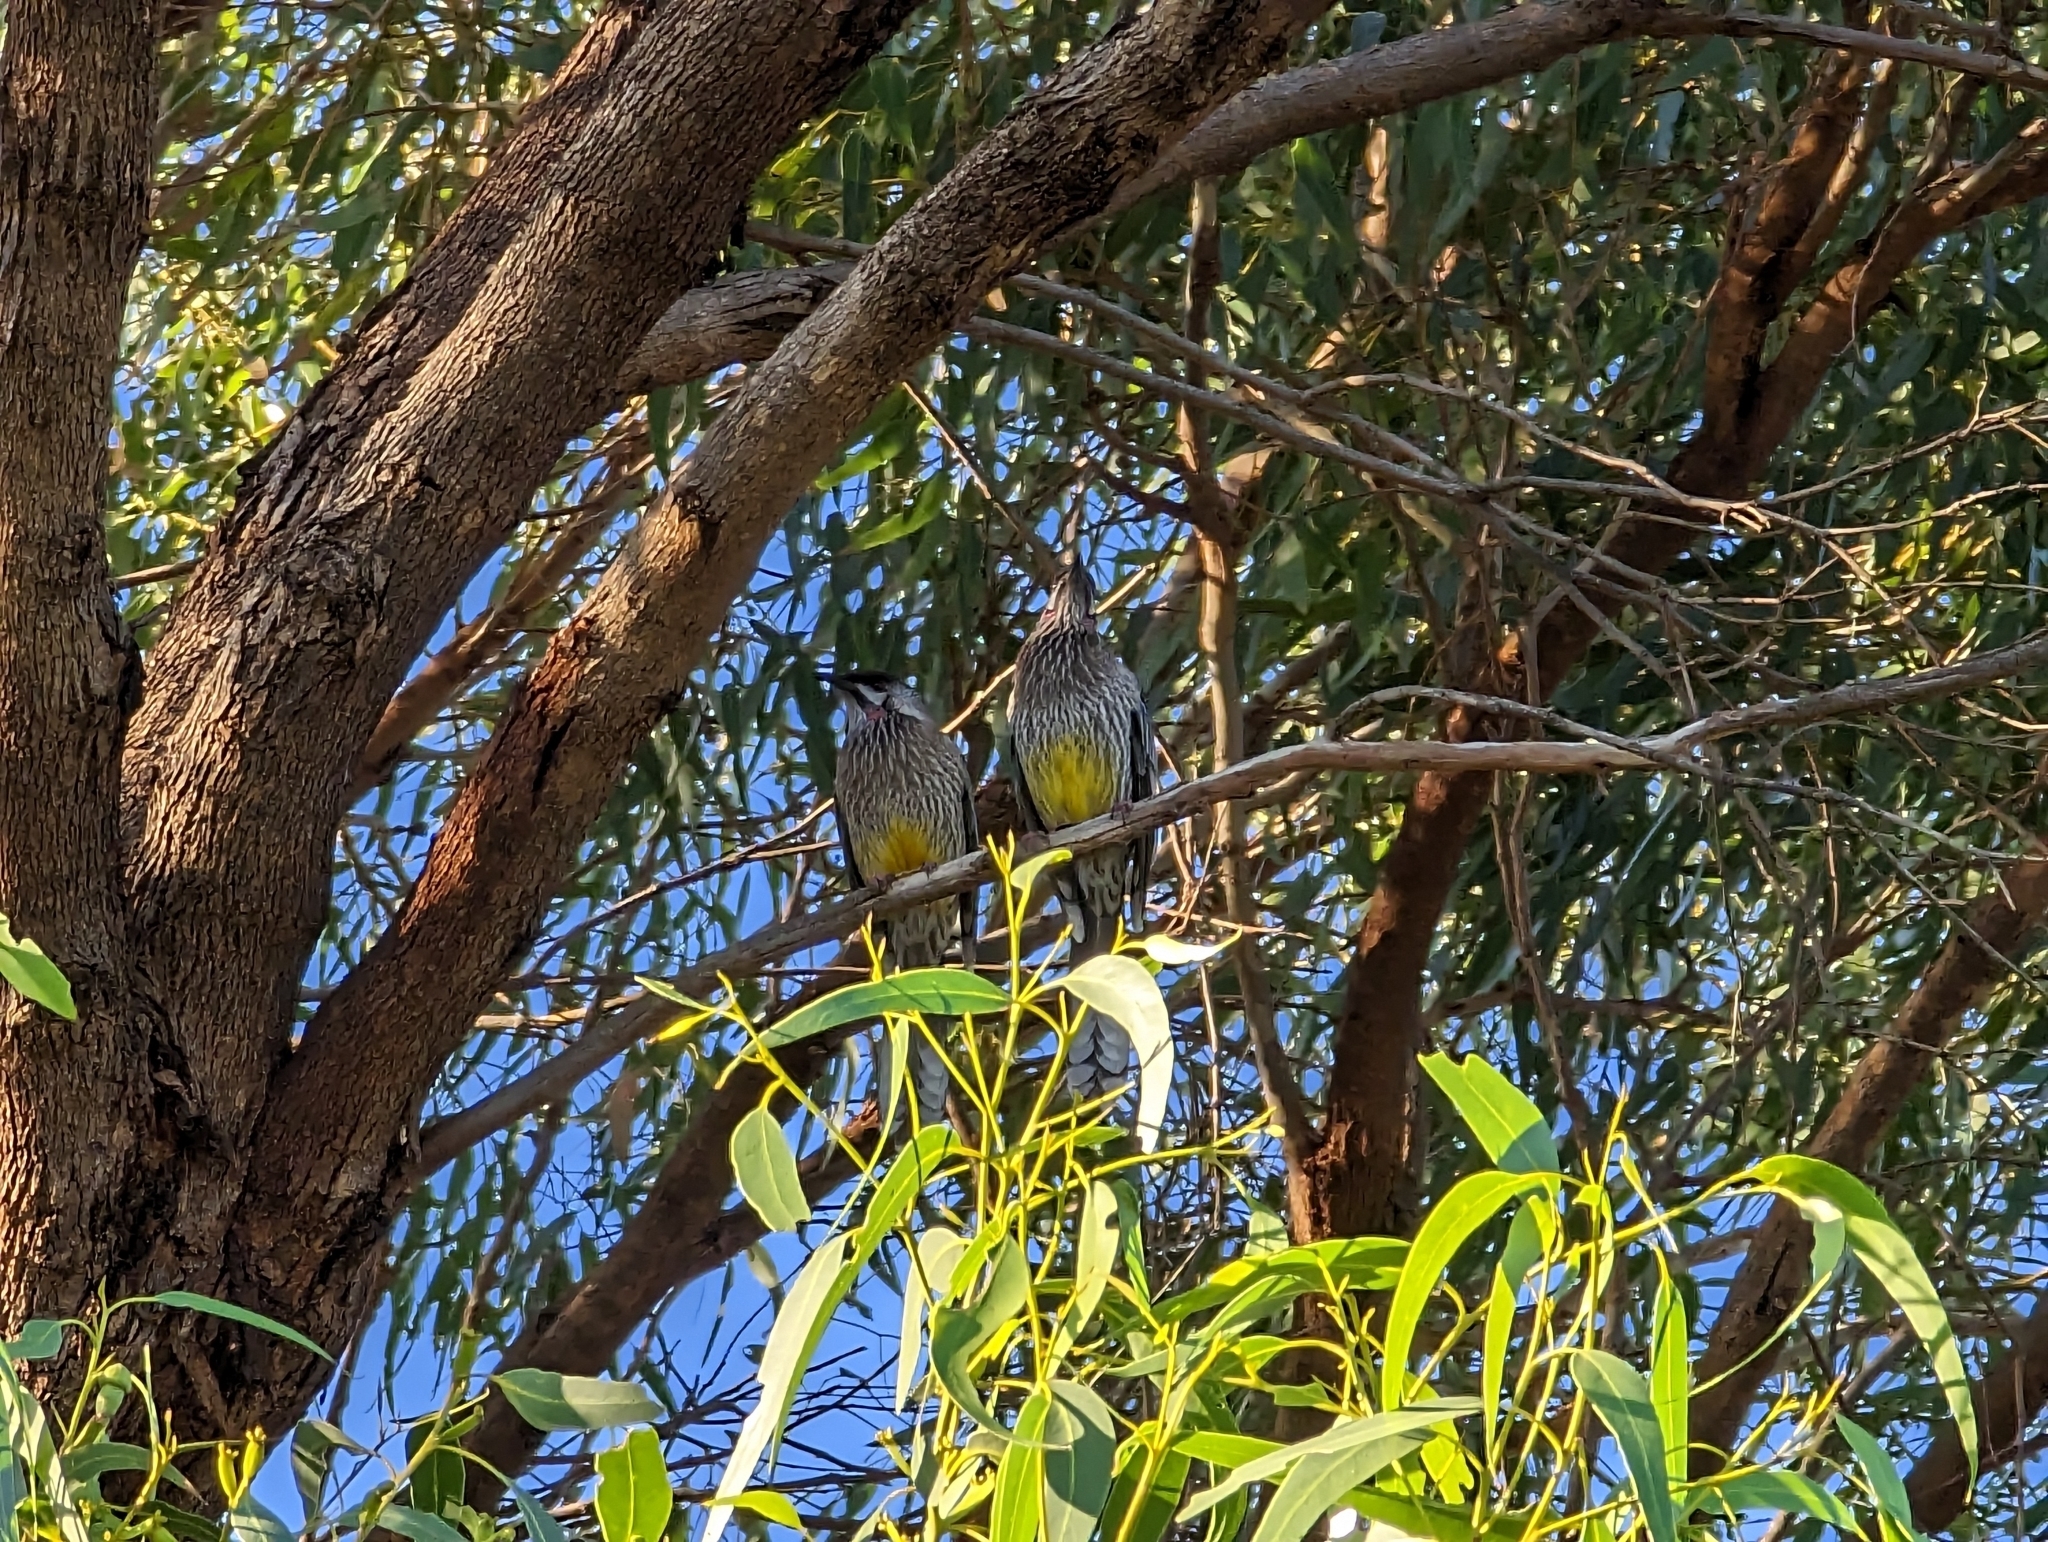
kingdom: Animalia
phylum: Chordata
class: Aves
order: Passeriformes
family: Meliphagidae
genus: Anthochaera
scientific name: Anthochaera carunculata
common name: Red wattlebird
